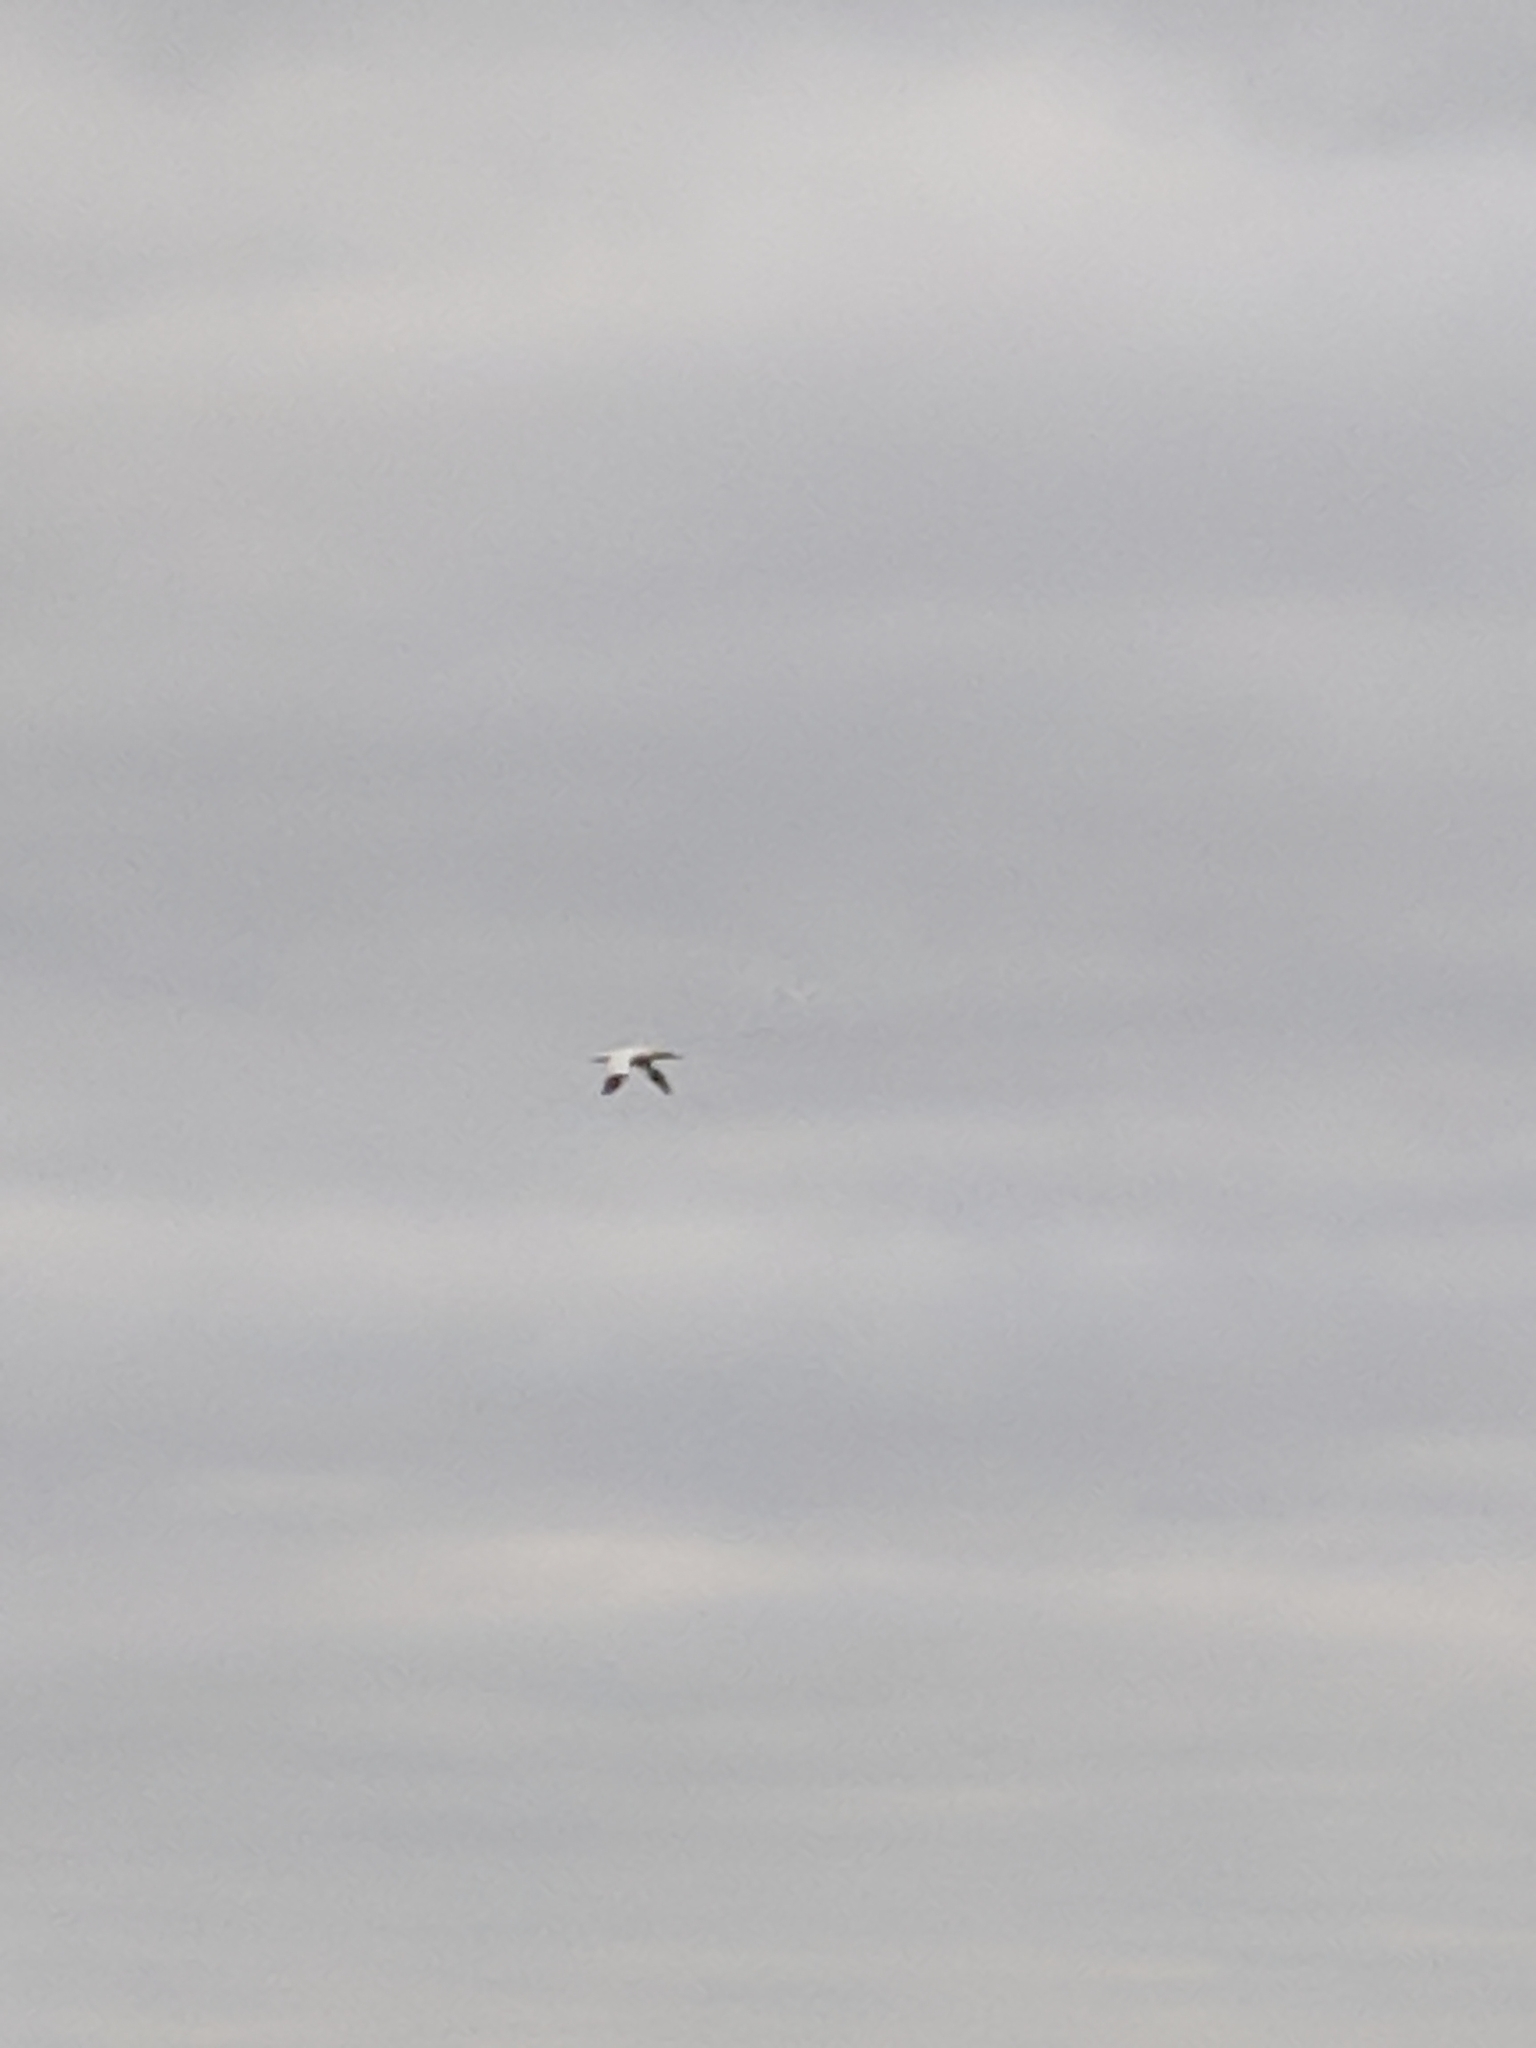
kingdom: Animalia
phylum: Chordata
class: Aves
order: Suliformes
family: Sulidae
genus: Morus
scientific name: Morus bassanus
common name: Northern gannet
